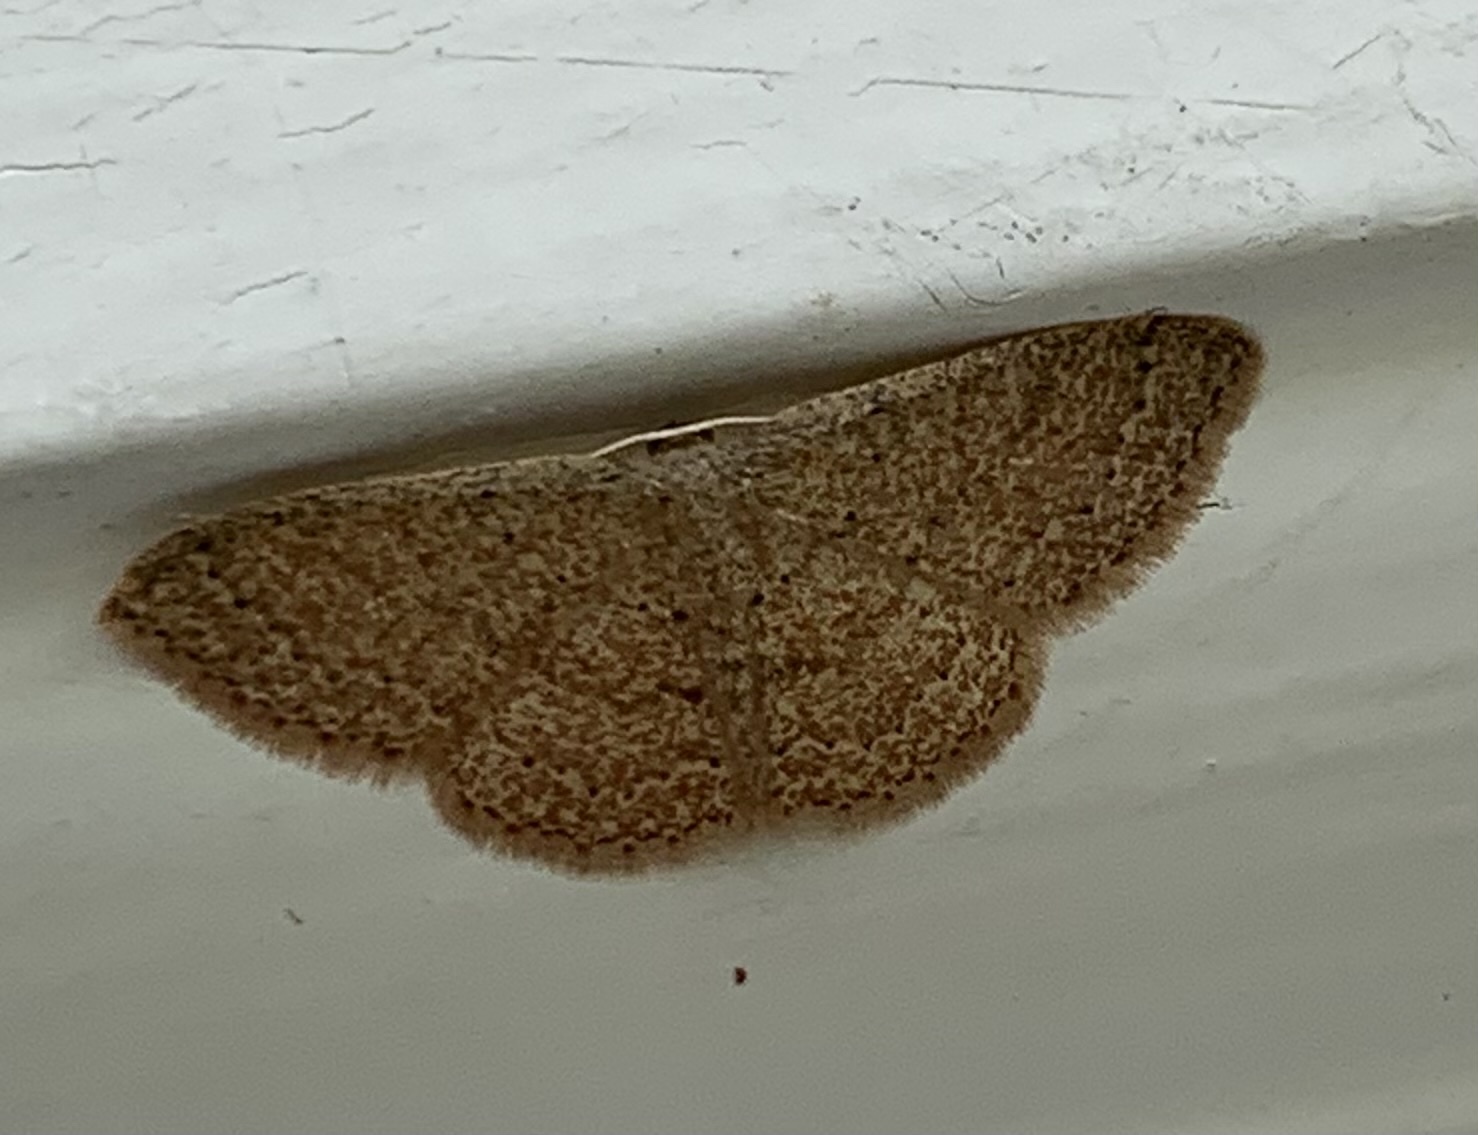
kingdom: Animalia
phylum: Arthropoda
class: Insecta
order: Lepidoptera
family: Geometridae
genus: Pleuroprucha
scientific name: Pleuroprucha insulsaria
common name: Common tan wave
